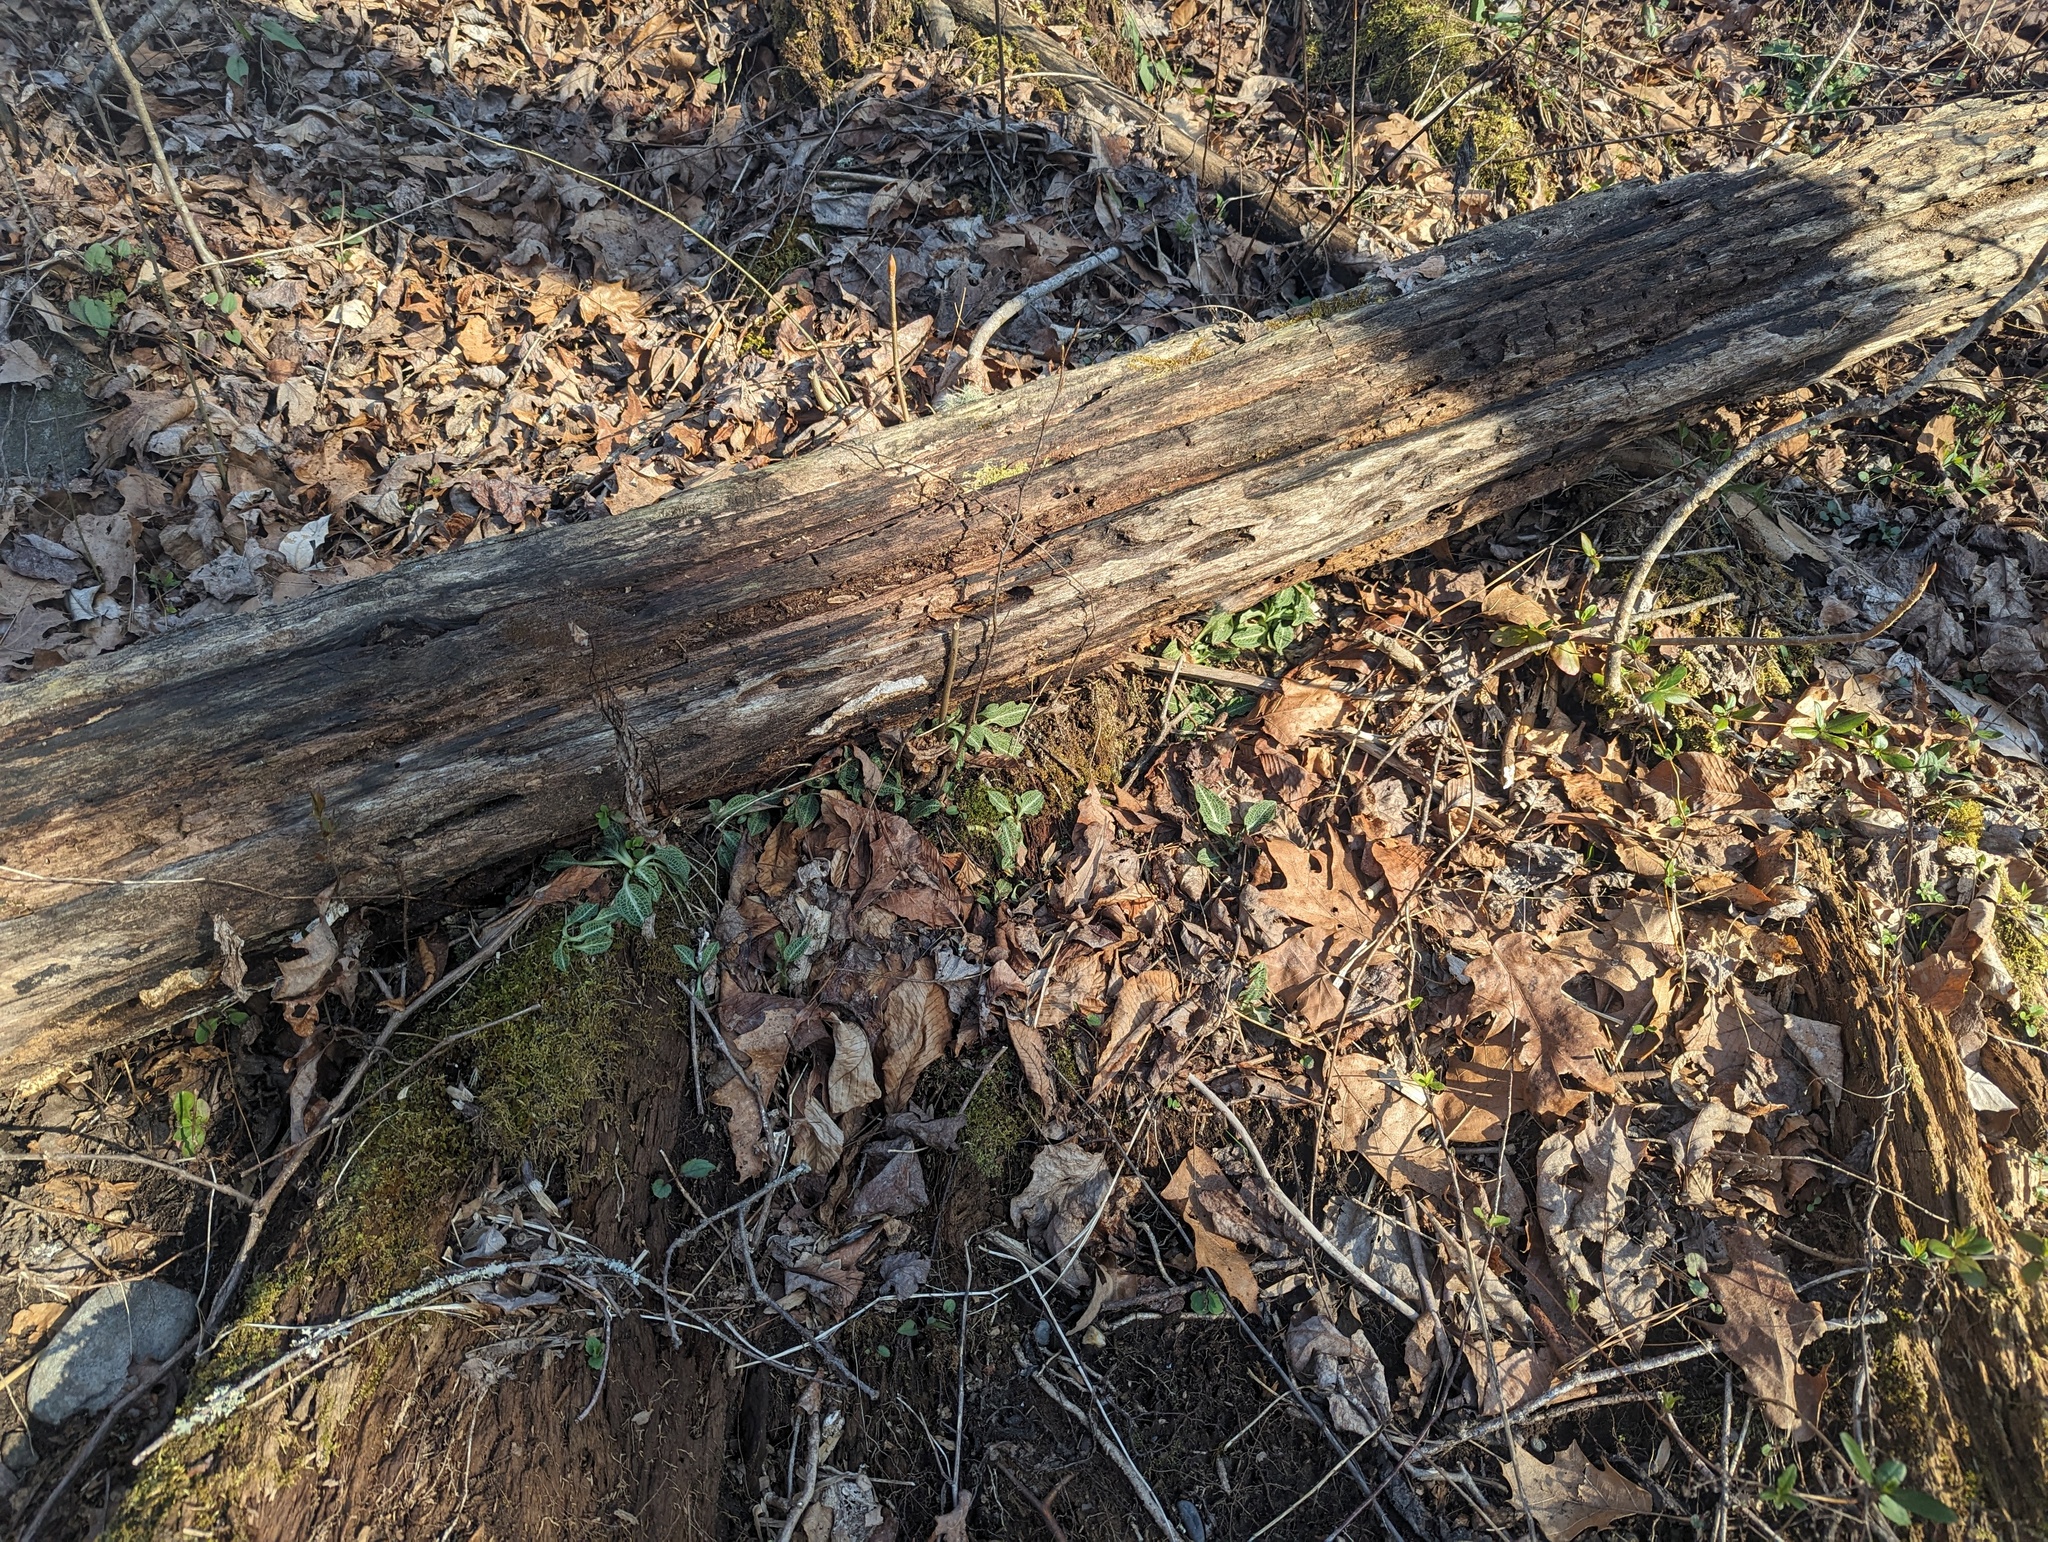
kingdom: Plantae
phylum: Tracheophyta
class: Liliopsida
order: Asparagales
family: Orchidaceae
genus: Goodyera
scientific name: Goodyera pubescens
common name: Downy rattlesnake-plantain
